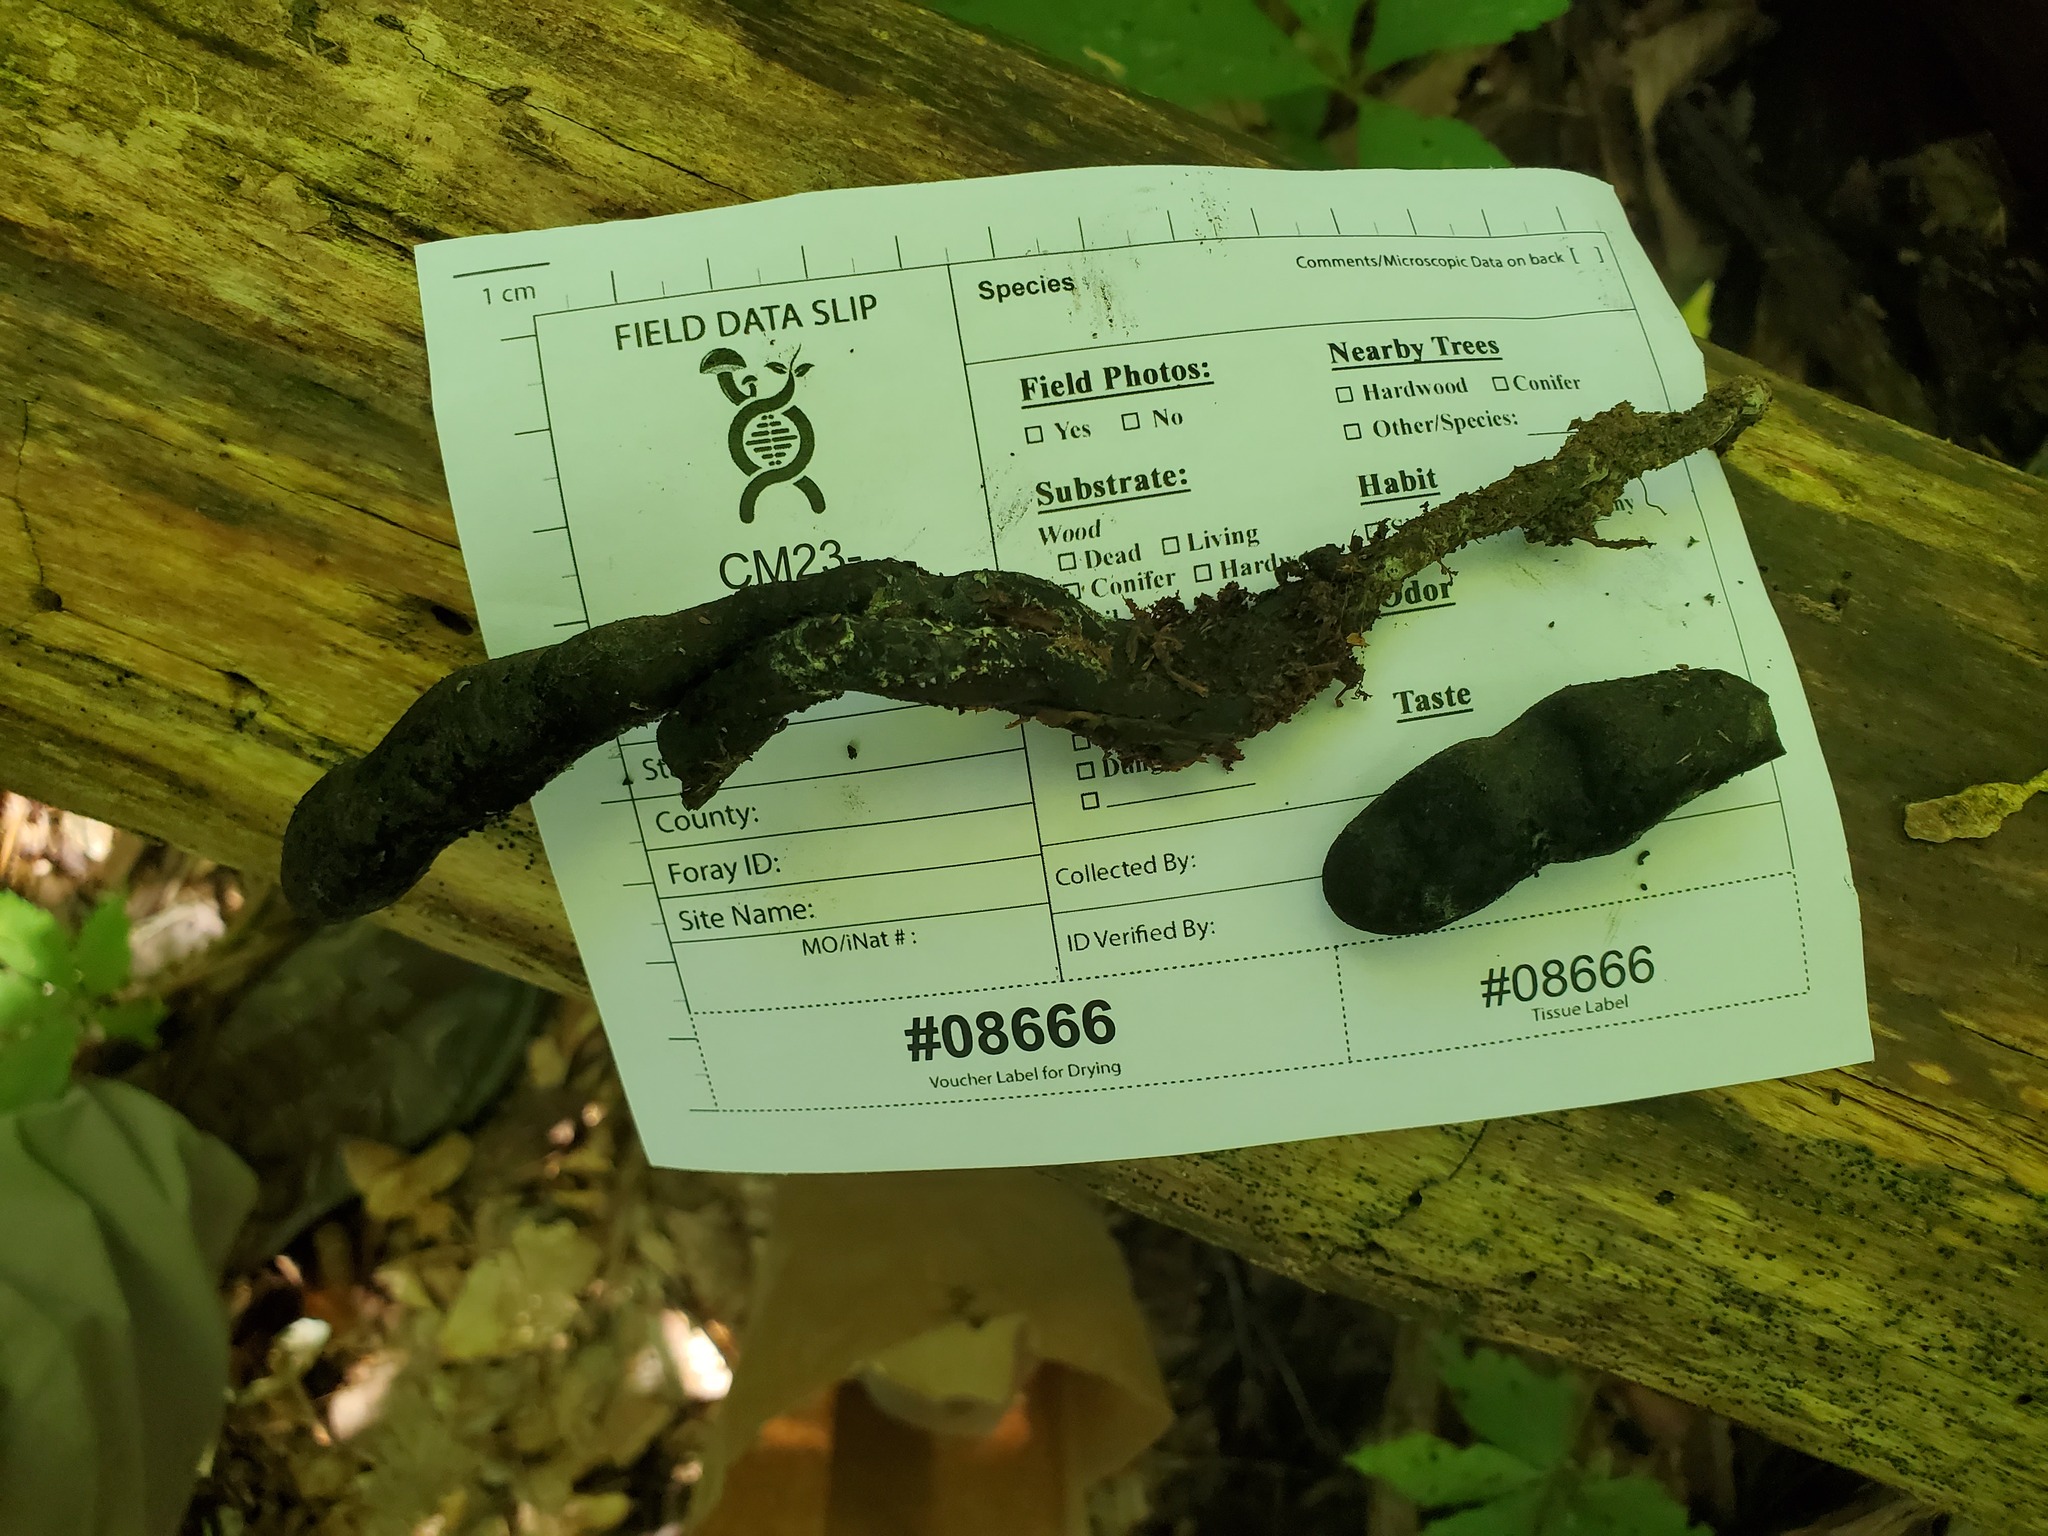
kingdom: Fungi
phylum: Ascomycota
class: Sordariomycetes
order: Xylariales
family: Xylariaceae
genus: Xylaria
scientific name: Xylaria polymorpha
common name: Dead man's fingers
